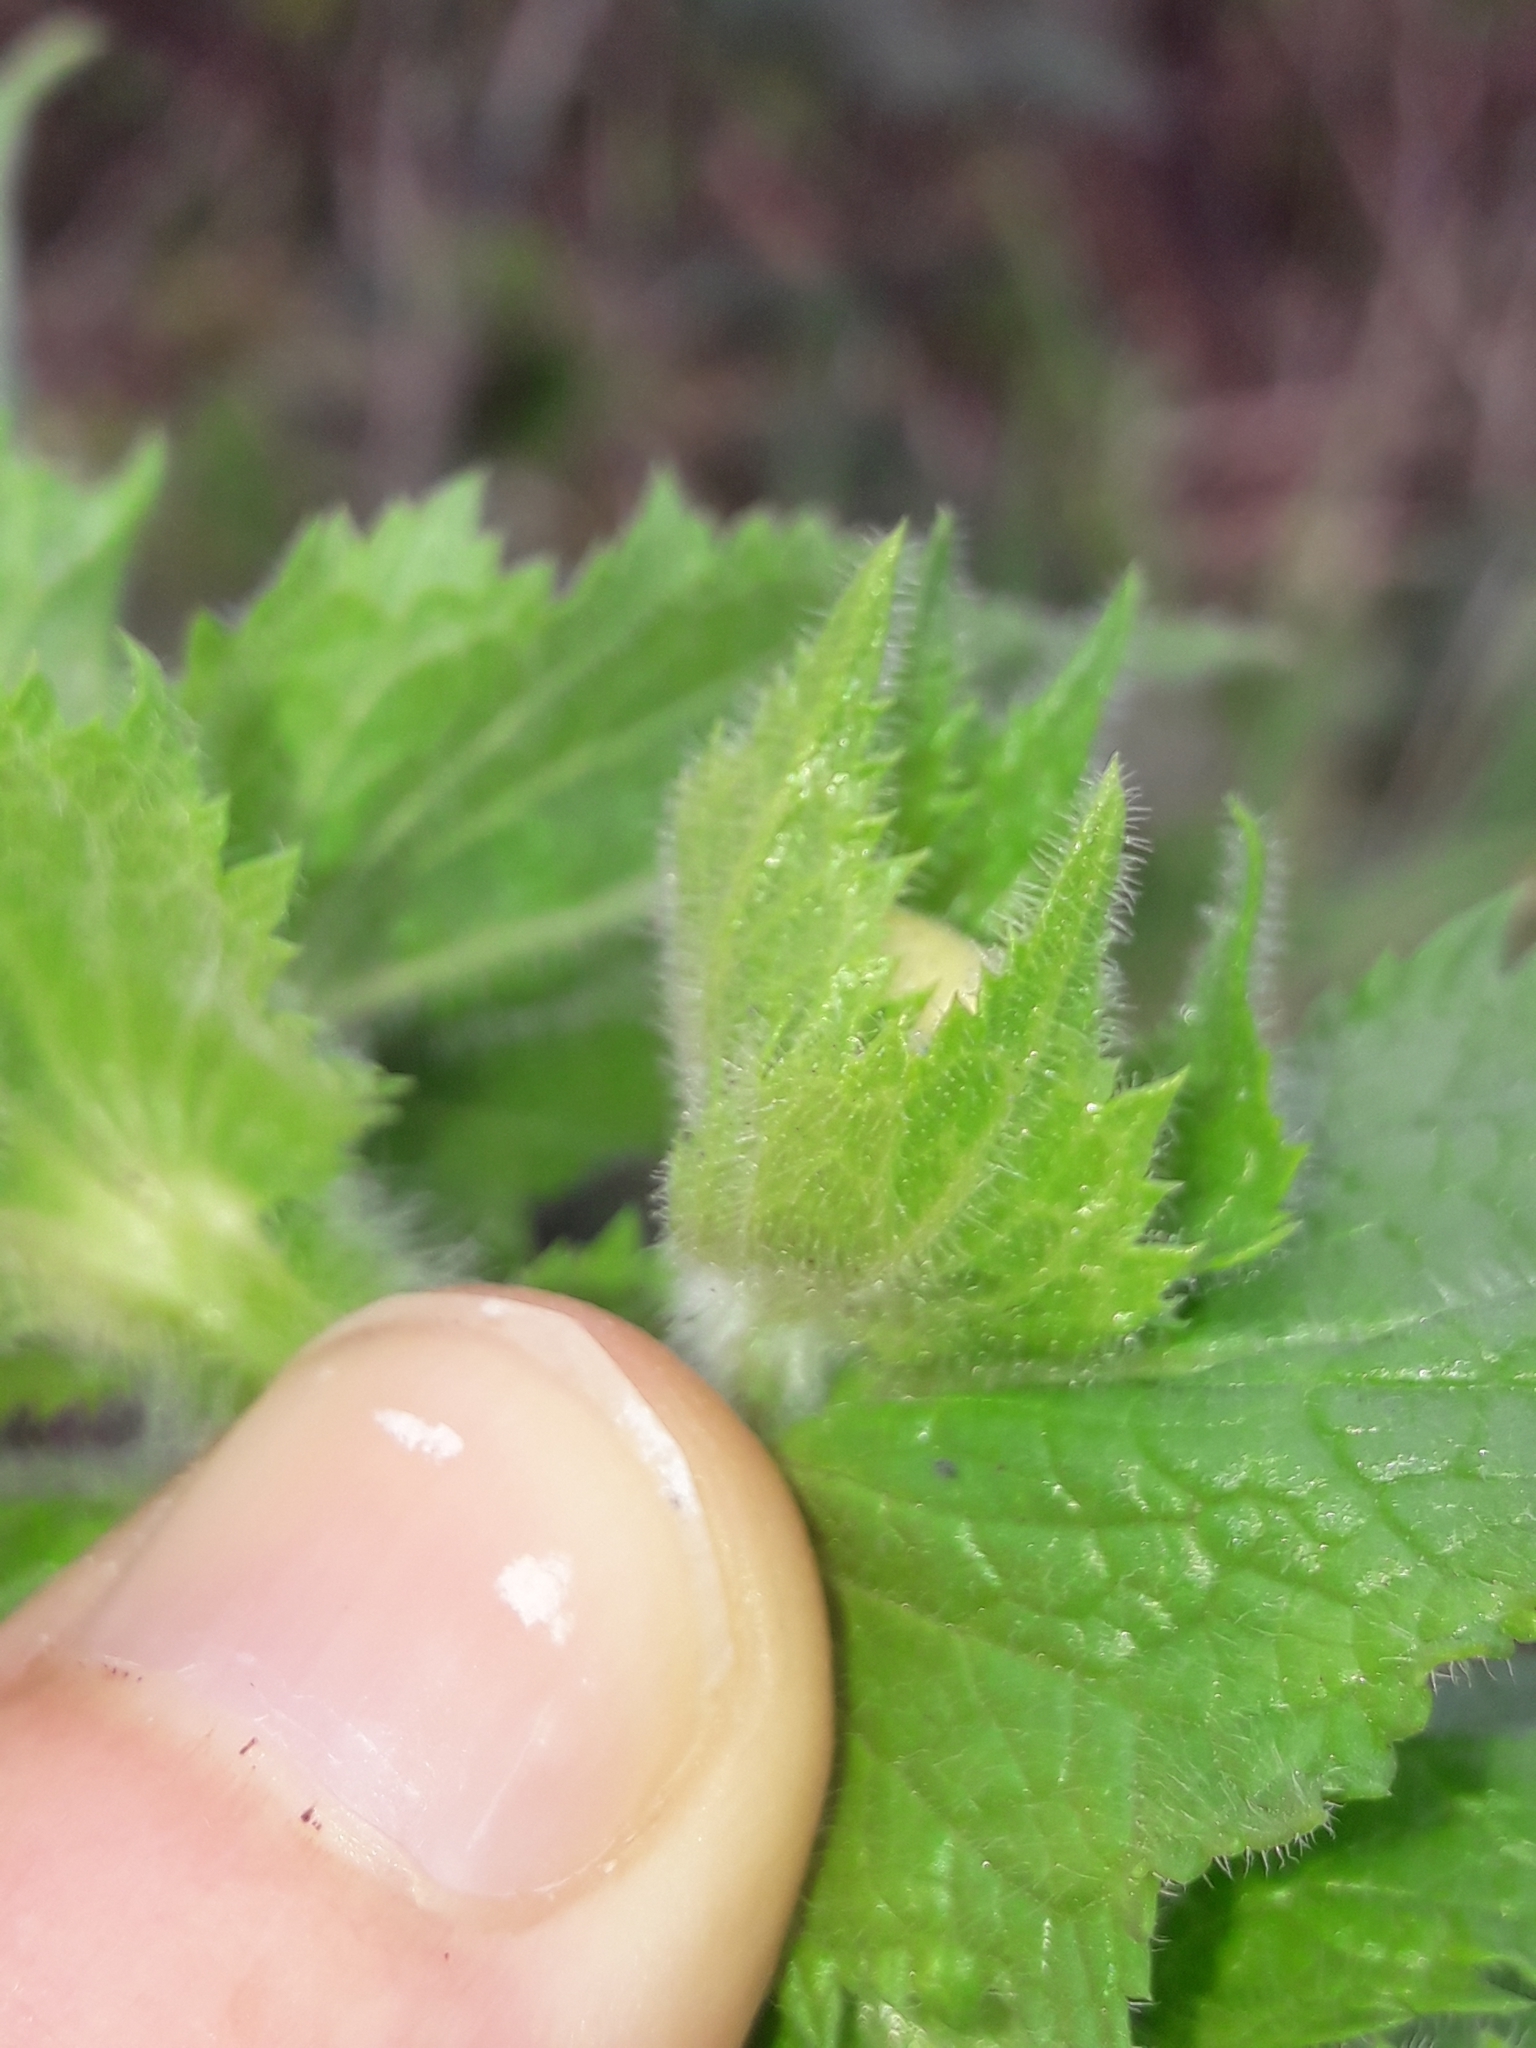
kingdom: Plantae
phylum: Tracheophyta
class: Magnoliopsida
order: Lamiales
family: Scrophulariaceae
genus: Verbascum
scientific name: Verbascum creticum
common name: Cretan mullein
